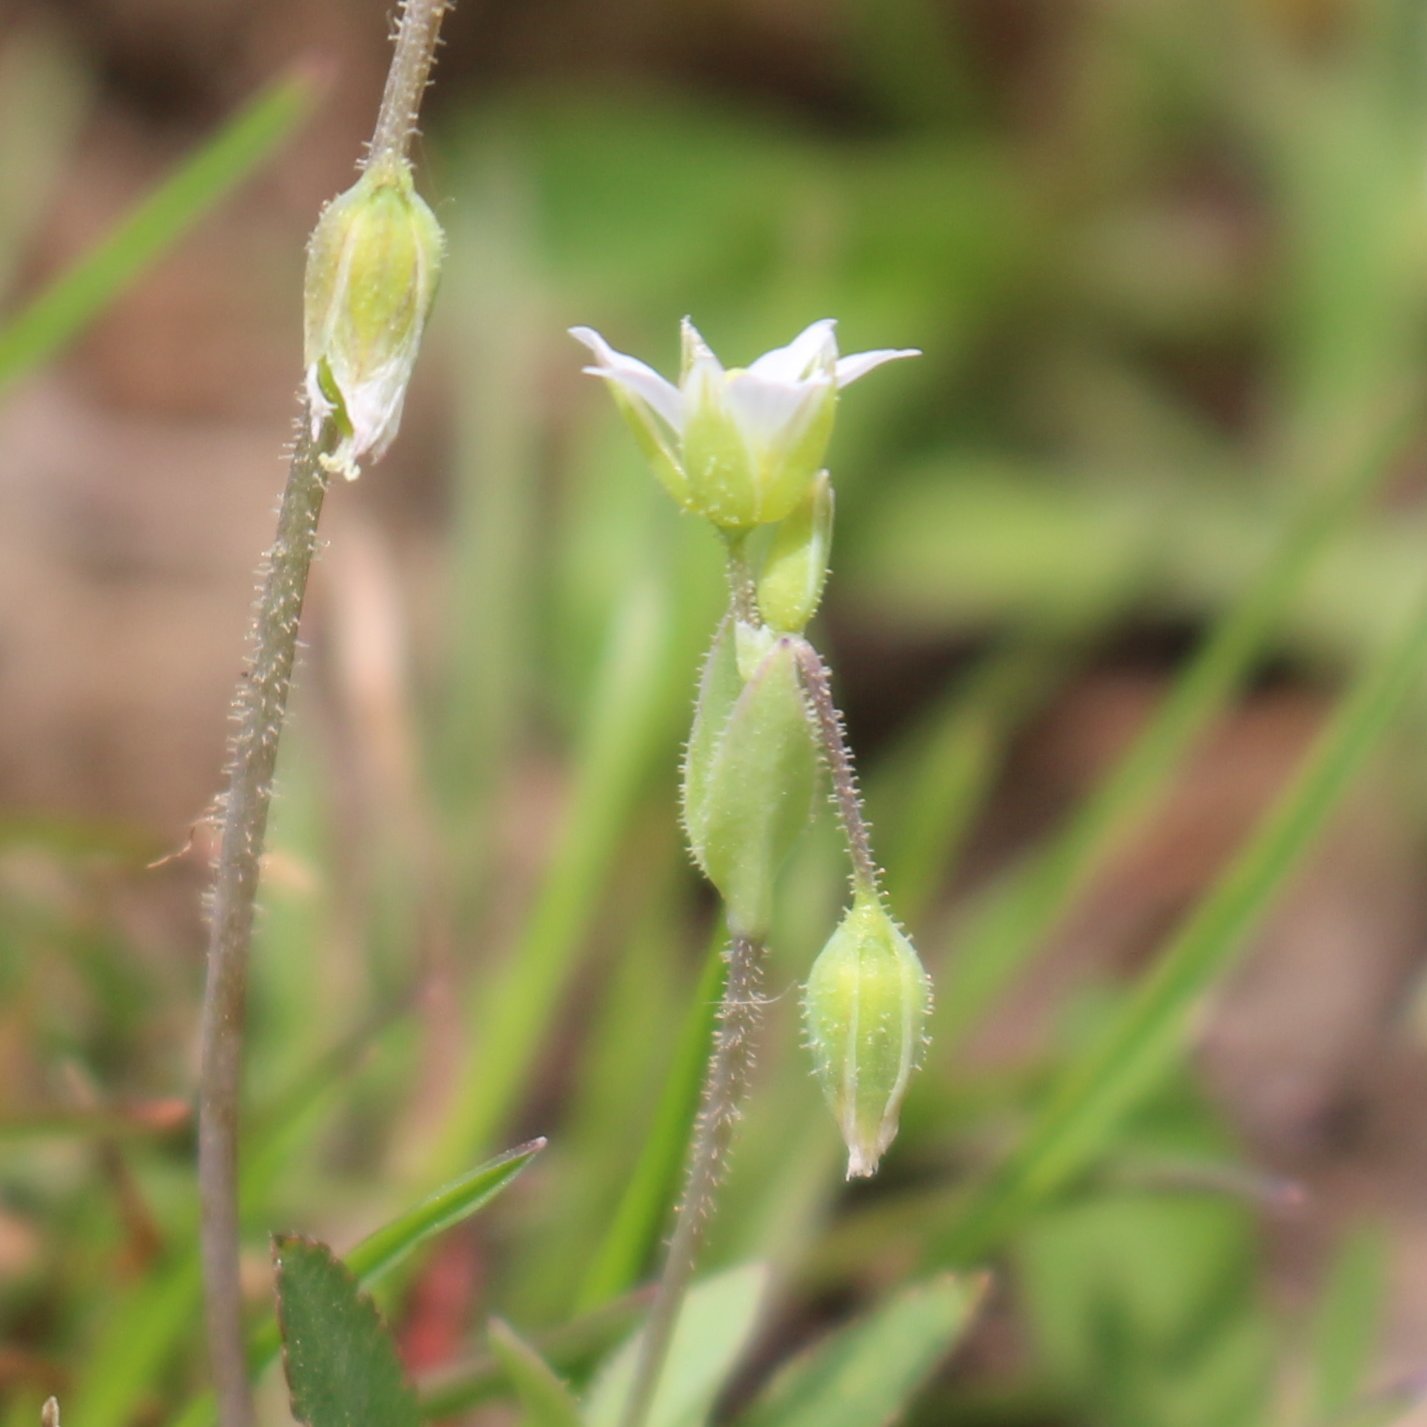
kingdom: Plantae
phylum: Tracheophyta
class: Magnoliopsida
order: Caryophyllales
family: Caryophyllaceae
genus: Holosteum
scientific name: Holosteum umbellatum
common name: Jagged chickweed
